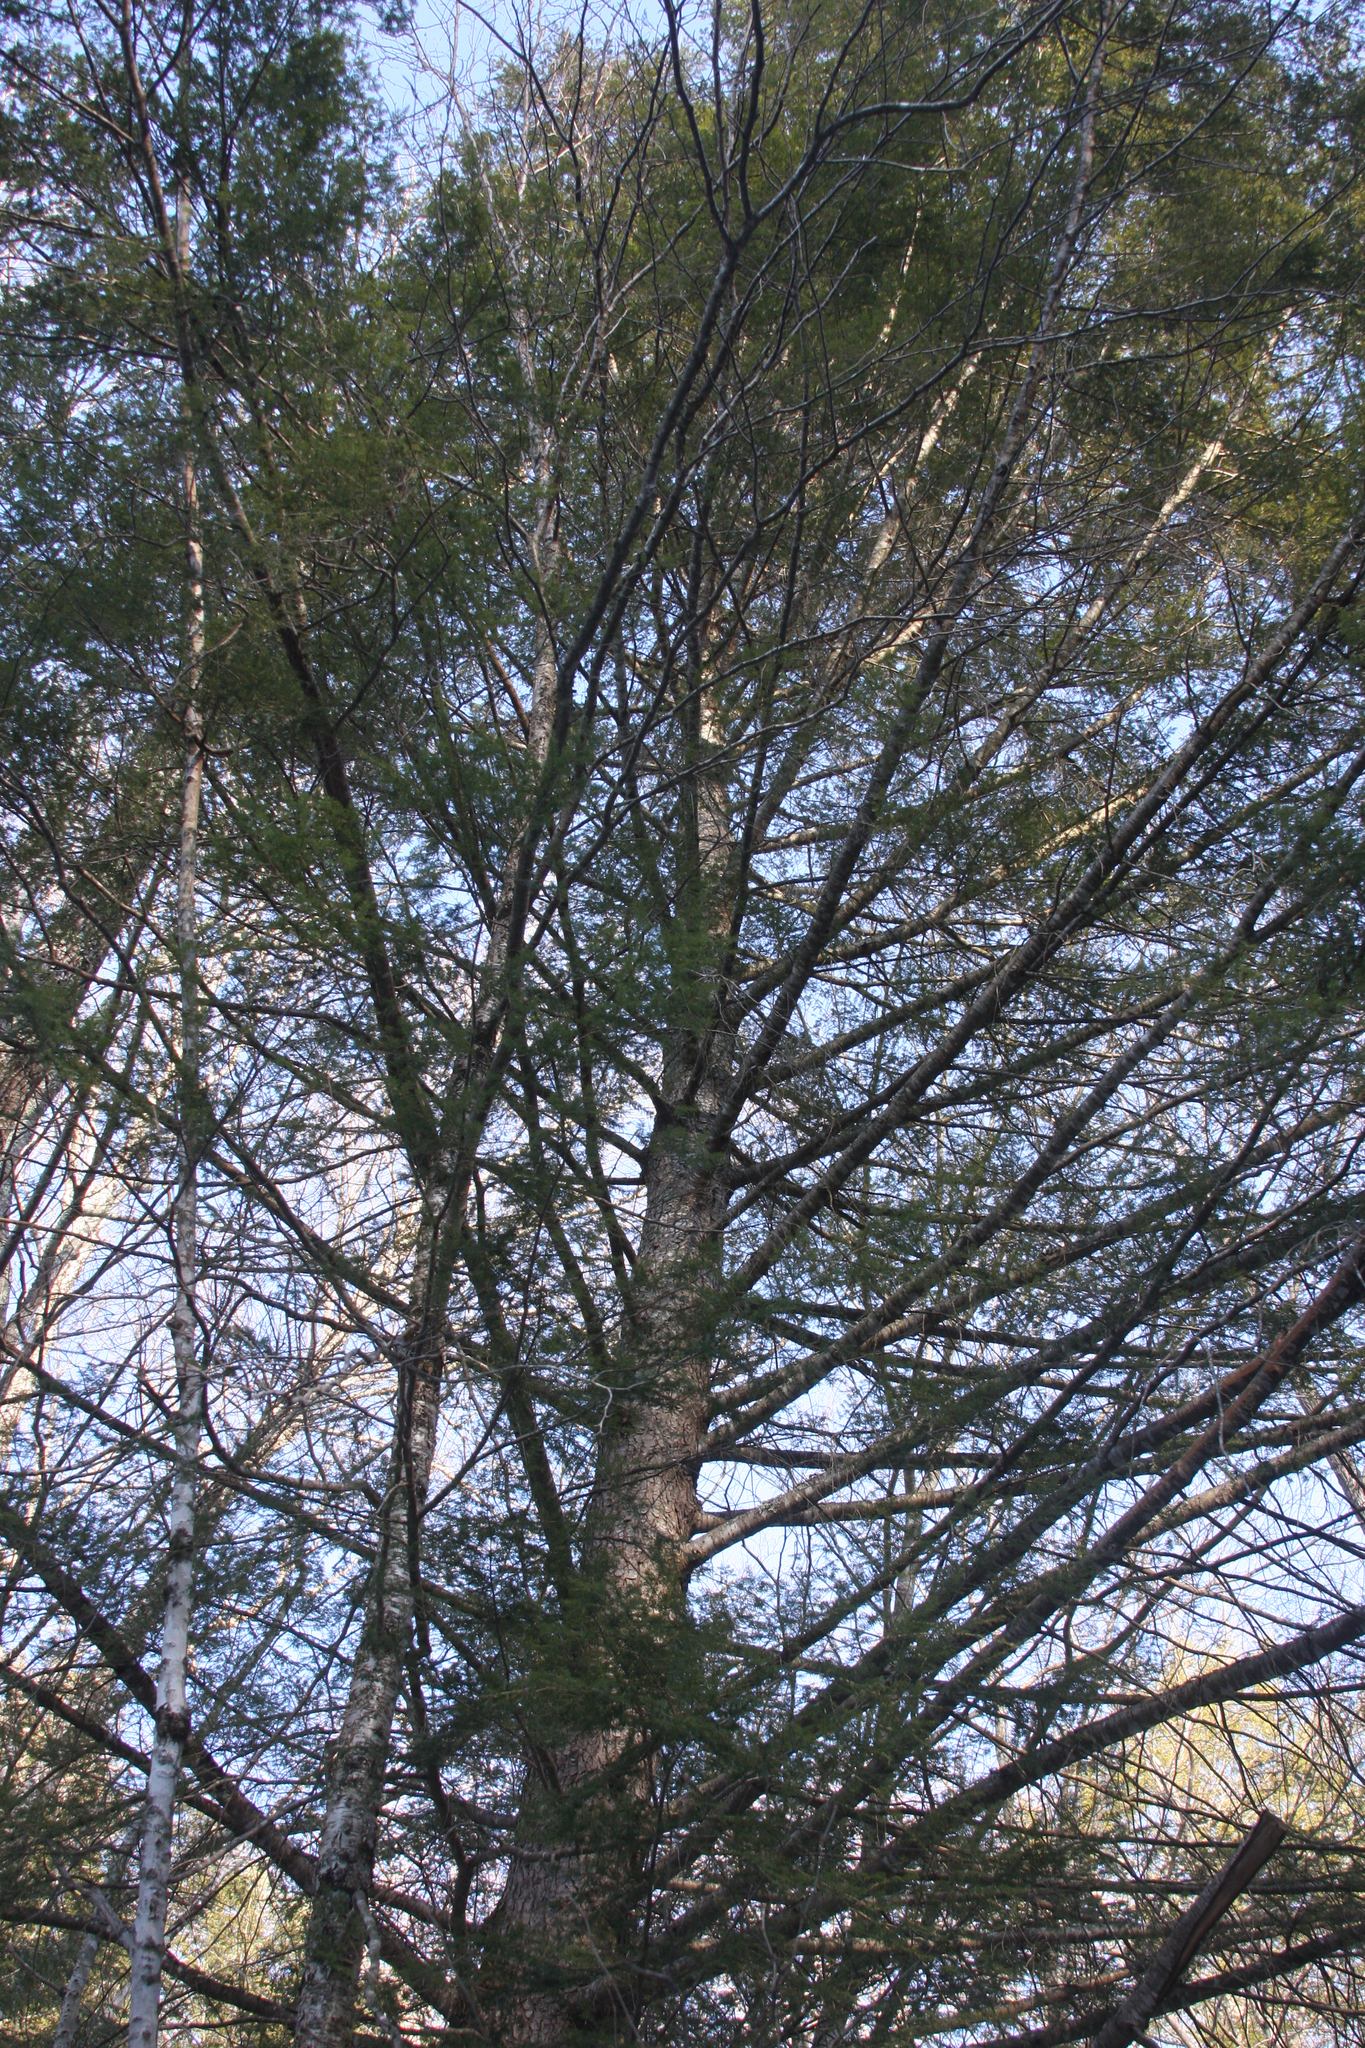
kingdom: Plantae
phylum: Tracheophyta
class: Pinopsida
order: Pinales
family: Pinaceae
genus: Tsuga
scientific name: Tsuga canadensis
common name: Eastern hemlock
